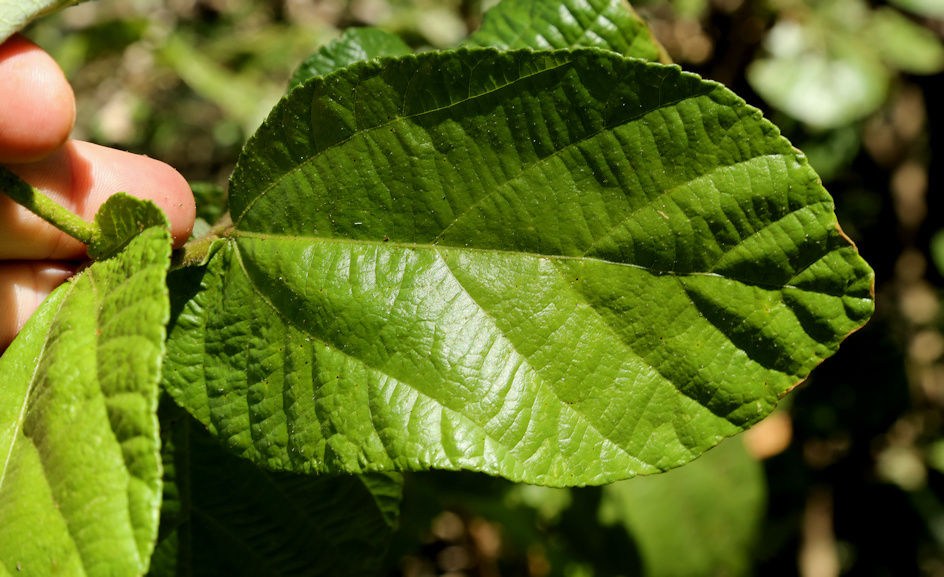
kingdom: Plantae
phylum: Tracheophyta
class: Magnoliopsida
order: Malvales
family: Malvaceae
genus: Grewia
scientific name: Grewia hexamita
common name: Giant raisin
